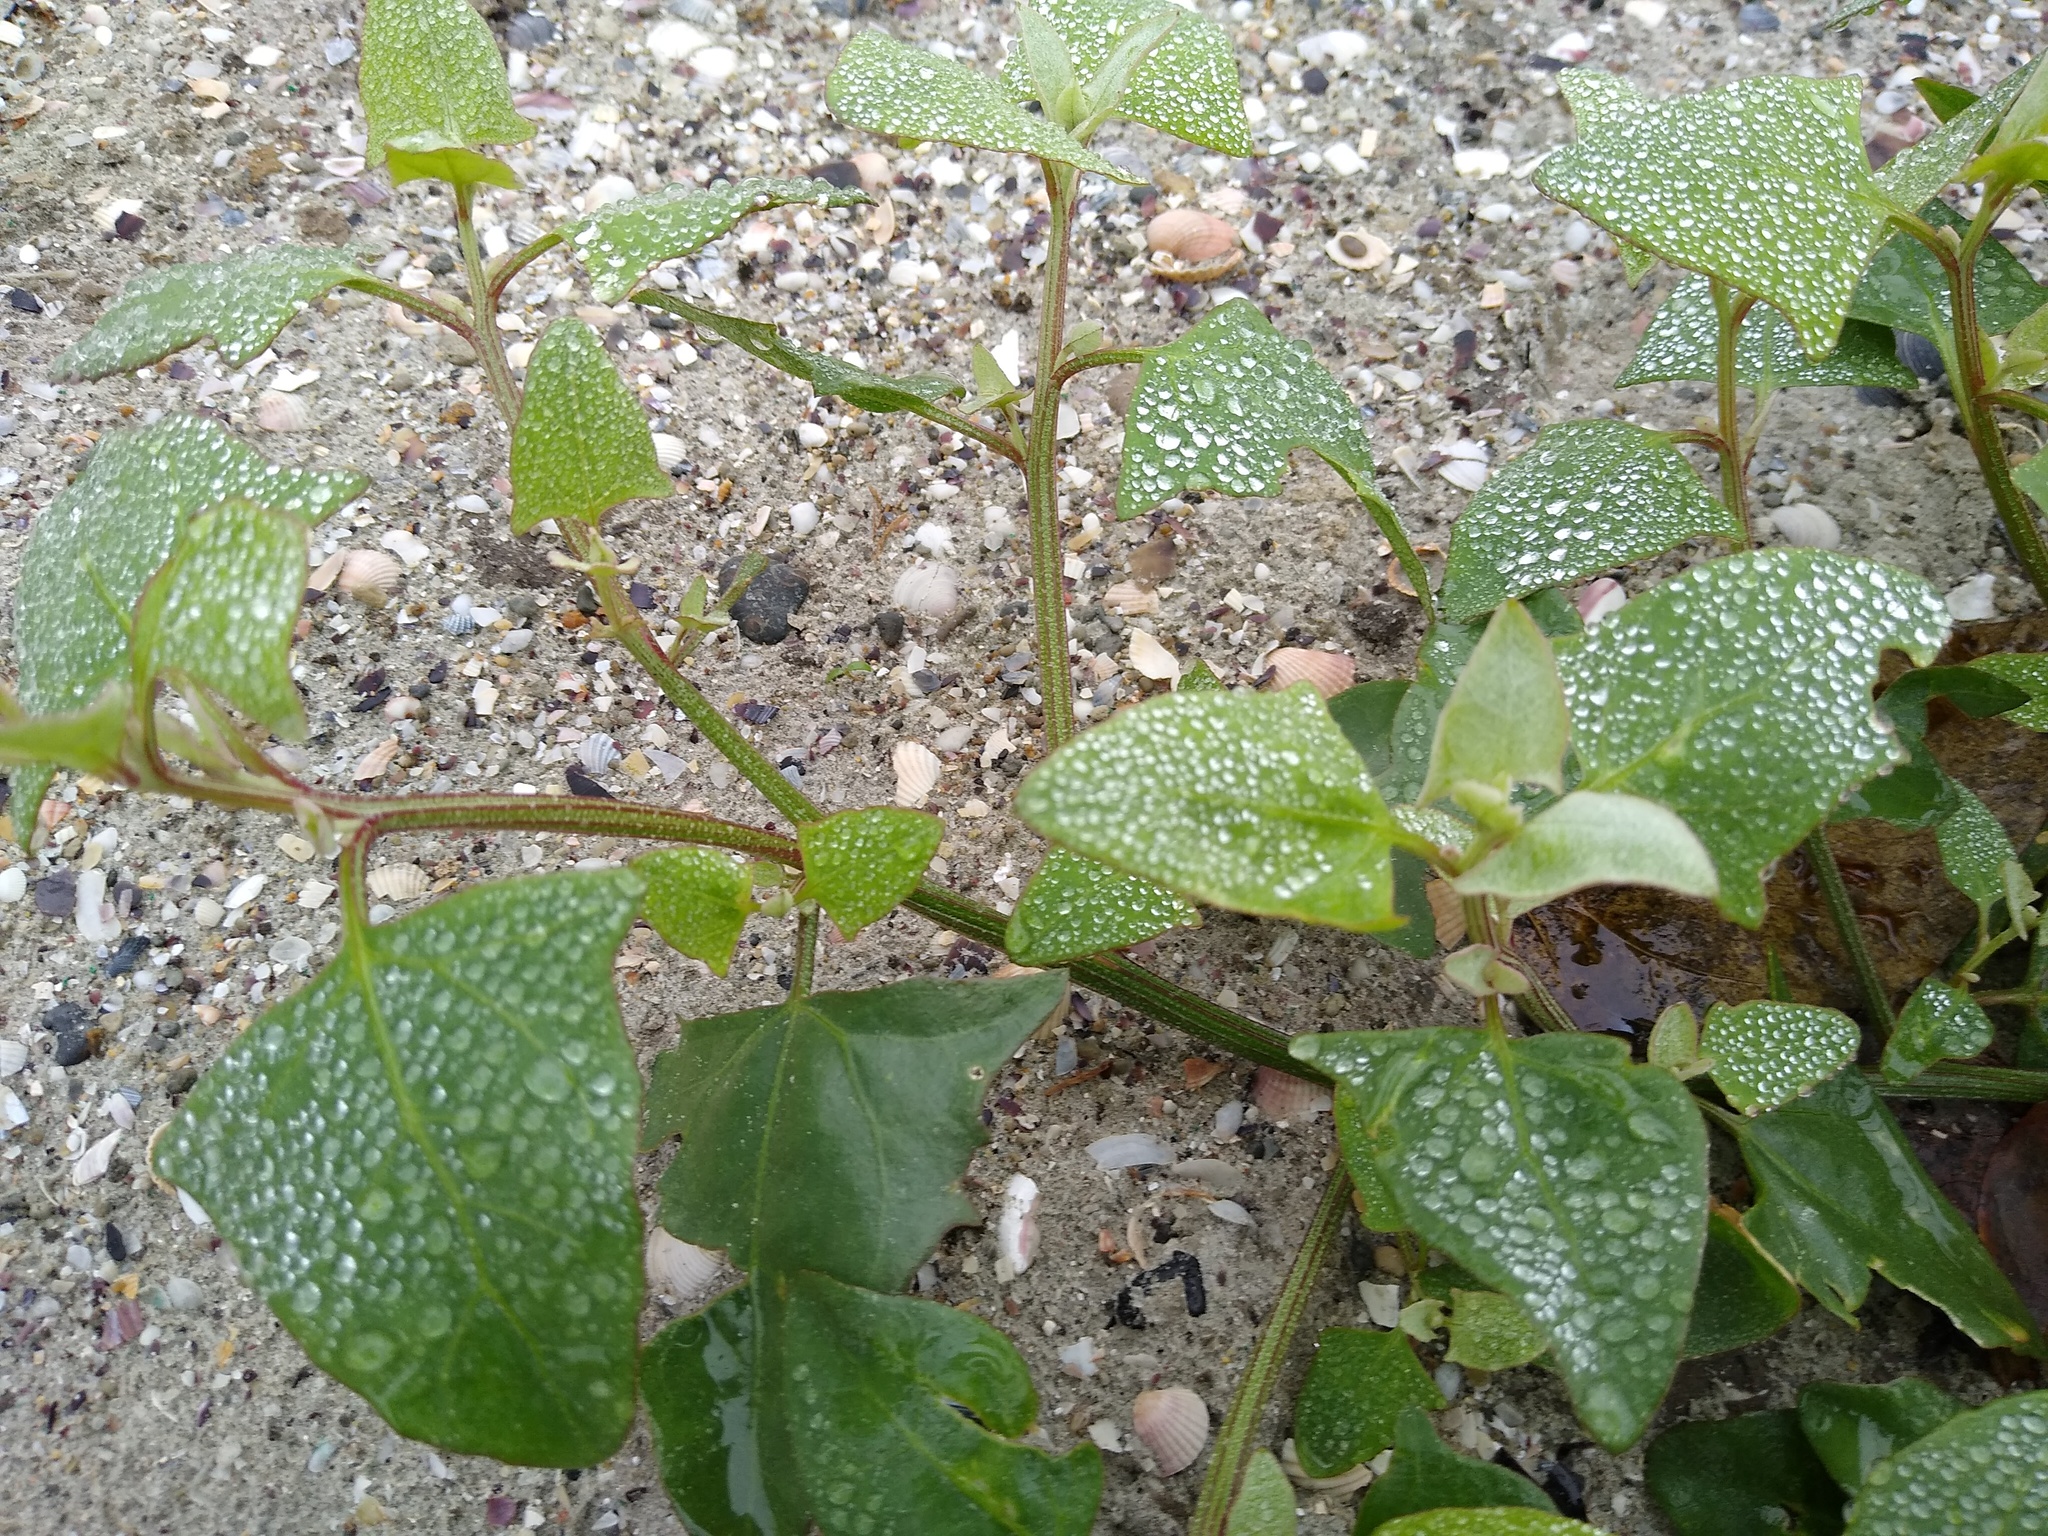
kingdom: Plantae
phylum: Tracheophyta
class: Magnoliopsida
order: Caryophyllales
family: Amaranthaceae
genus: Atriplex
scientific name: Atriplex prostrata
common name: Spear-leaved orache
